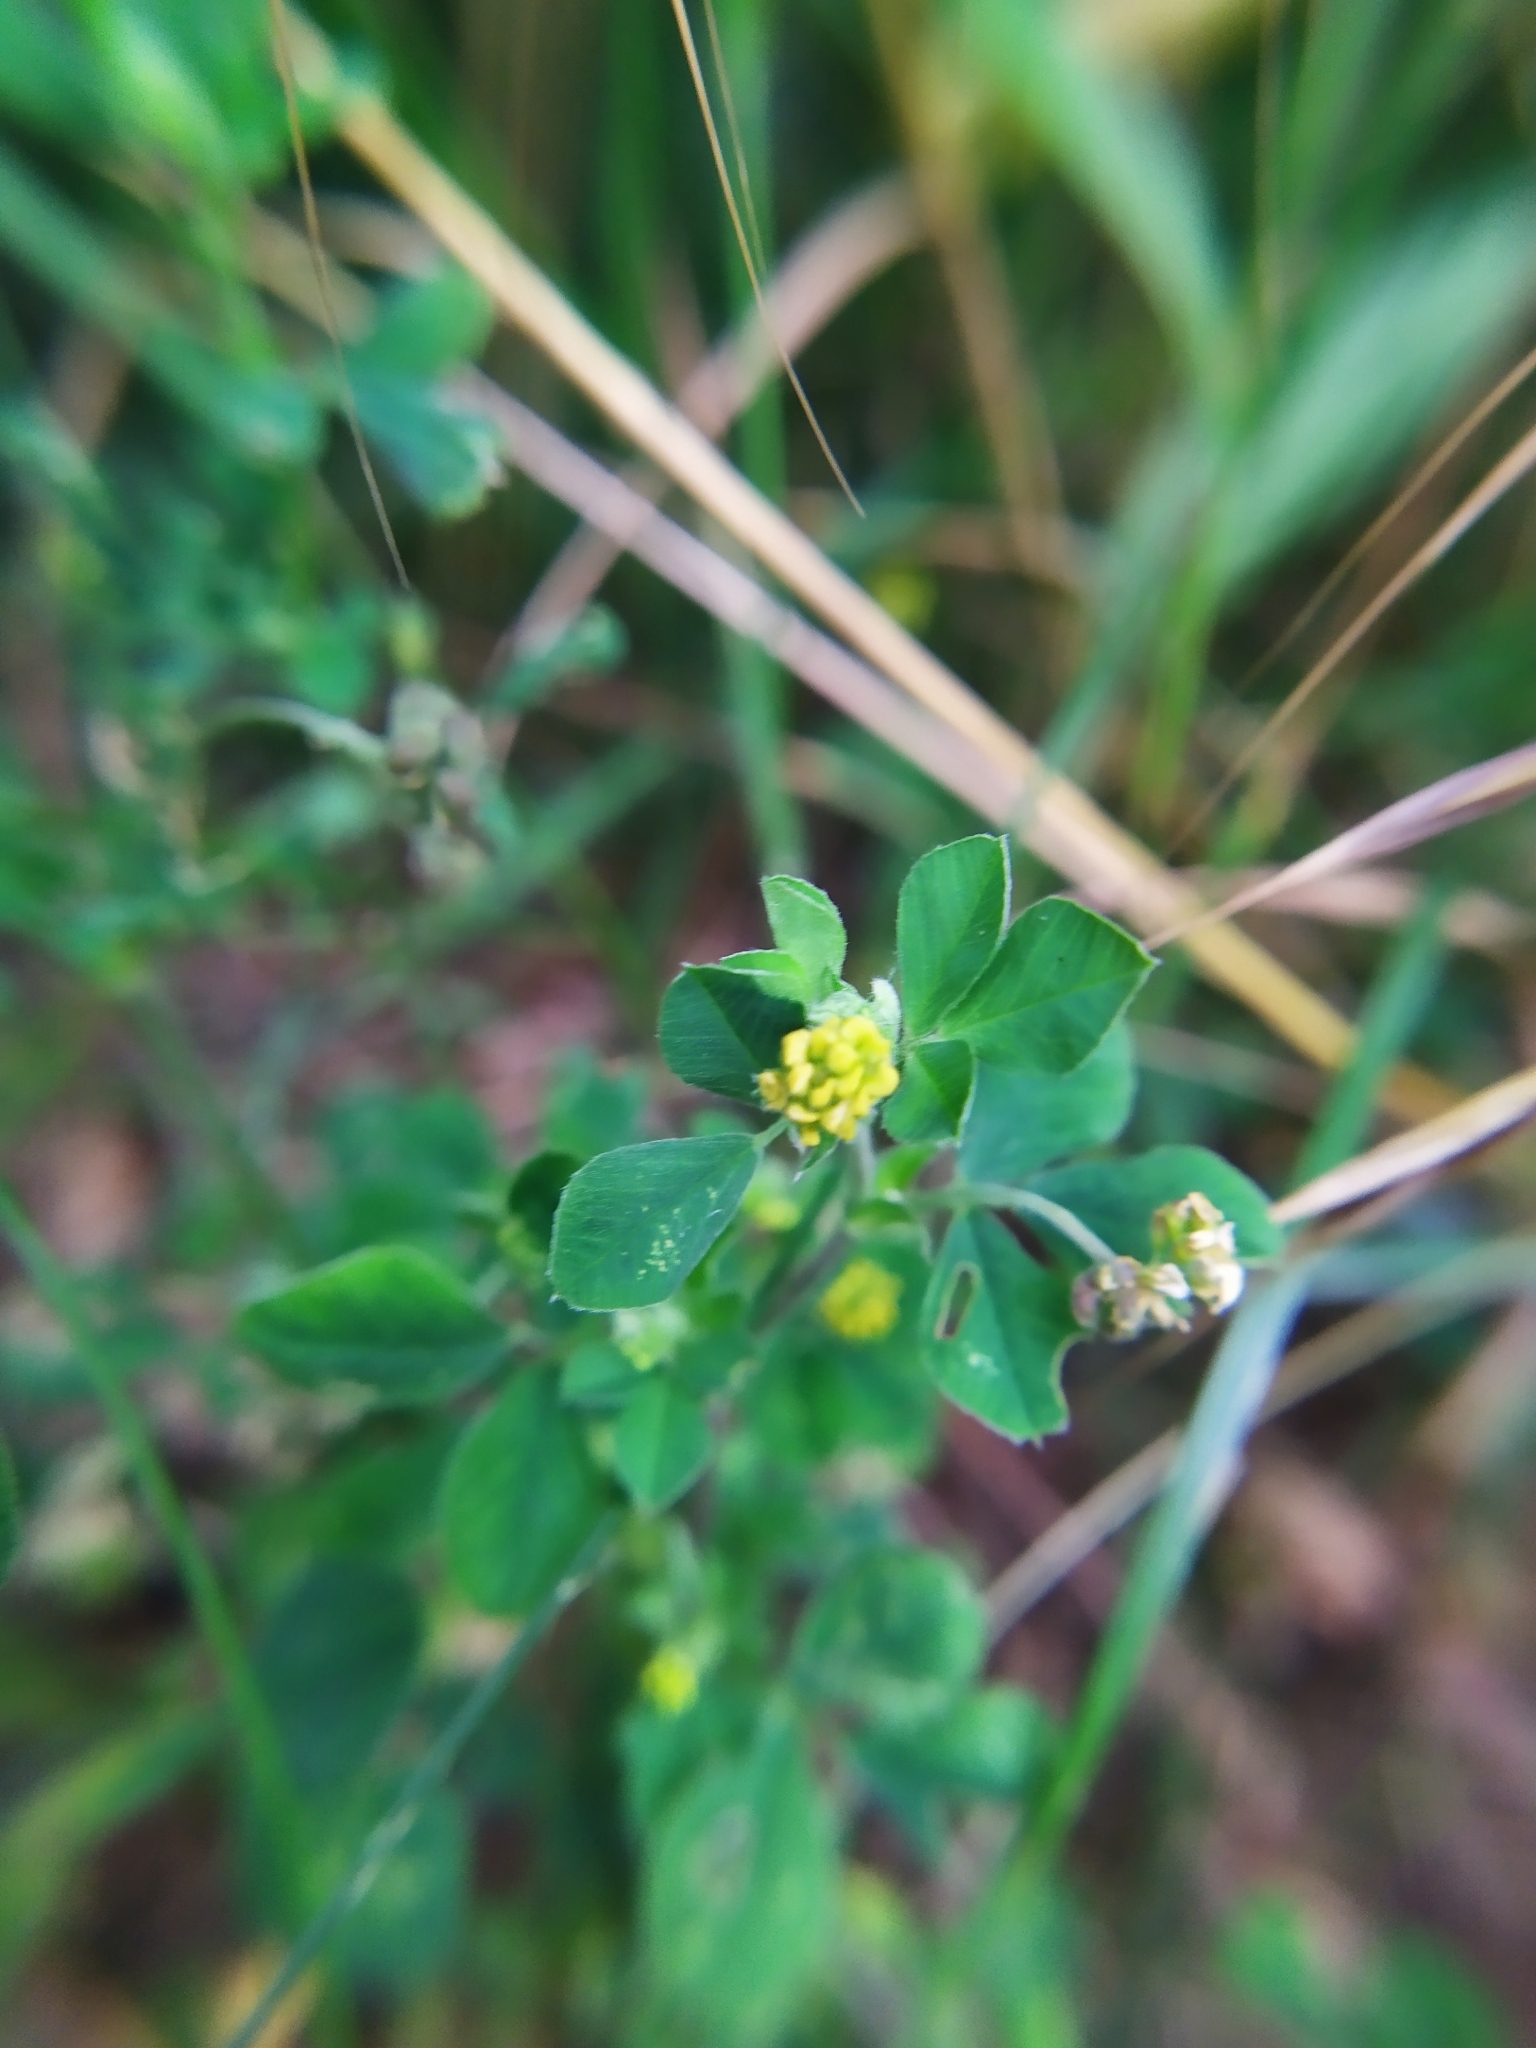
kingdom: Plantae
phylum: Tracheophyta
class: Magnoliopsida
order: Fabales
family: Fabaceae
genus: Medicago
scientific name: Medicago lupulina
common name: Black medick
